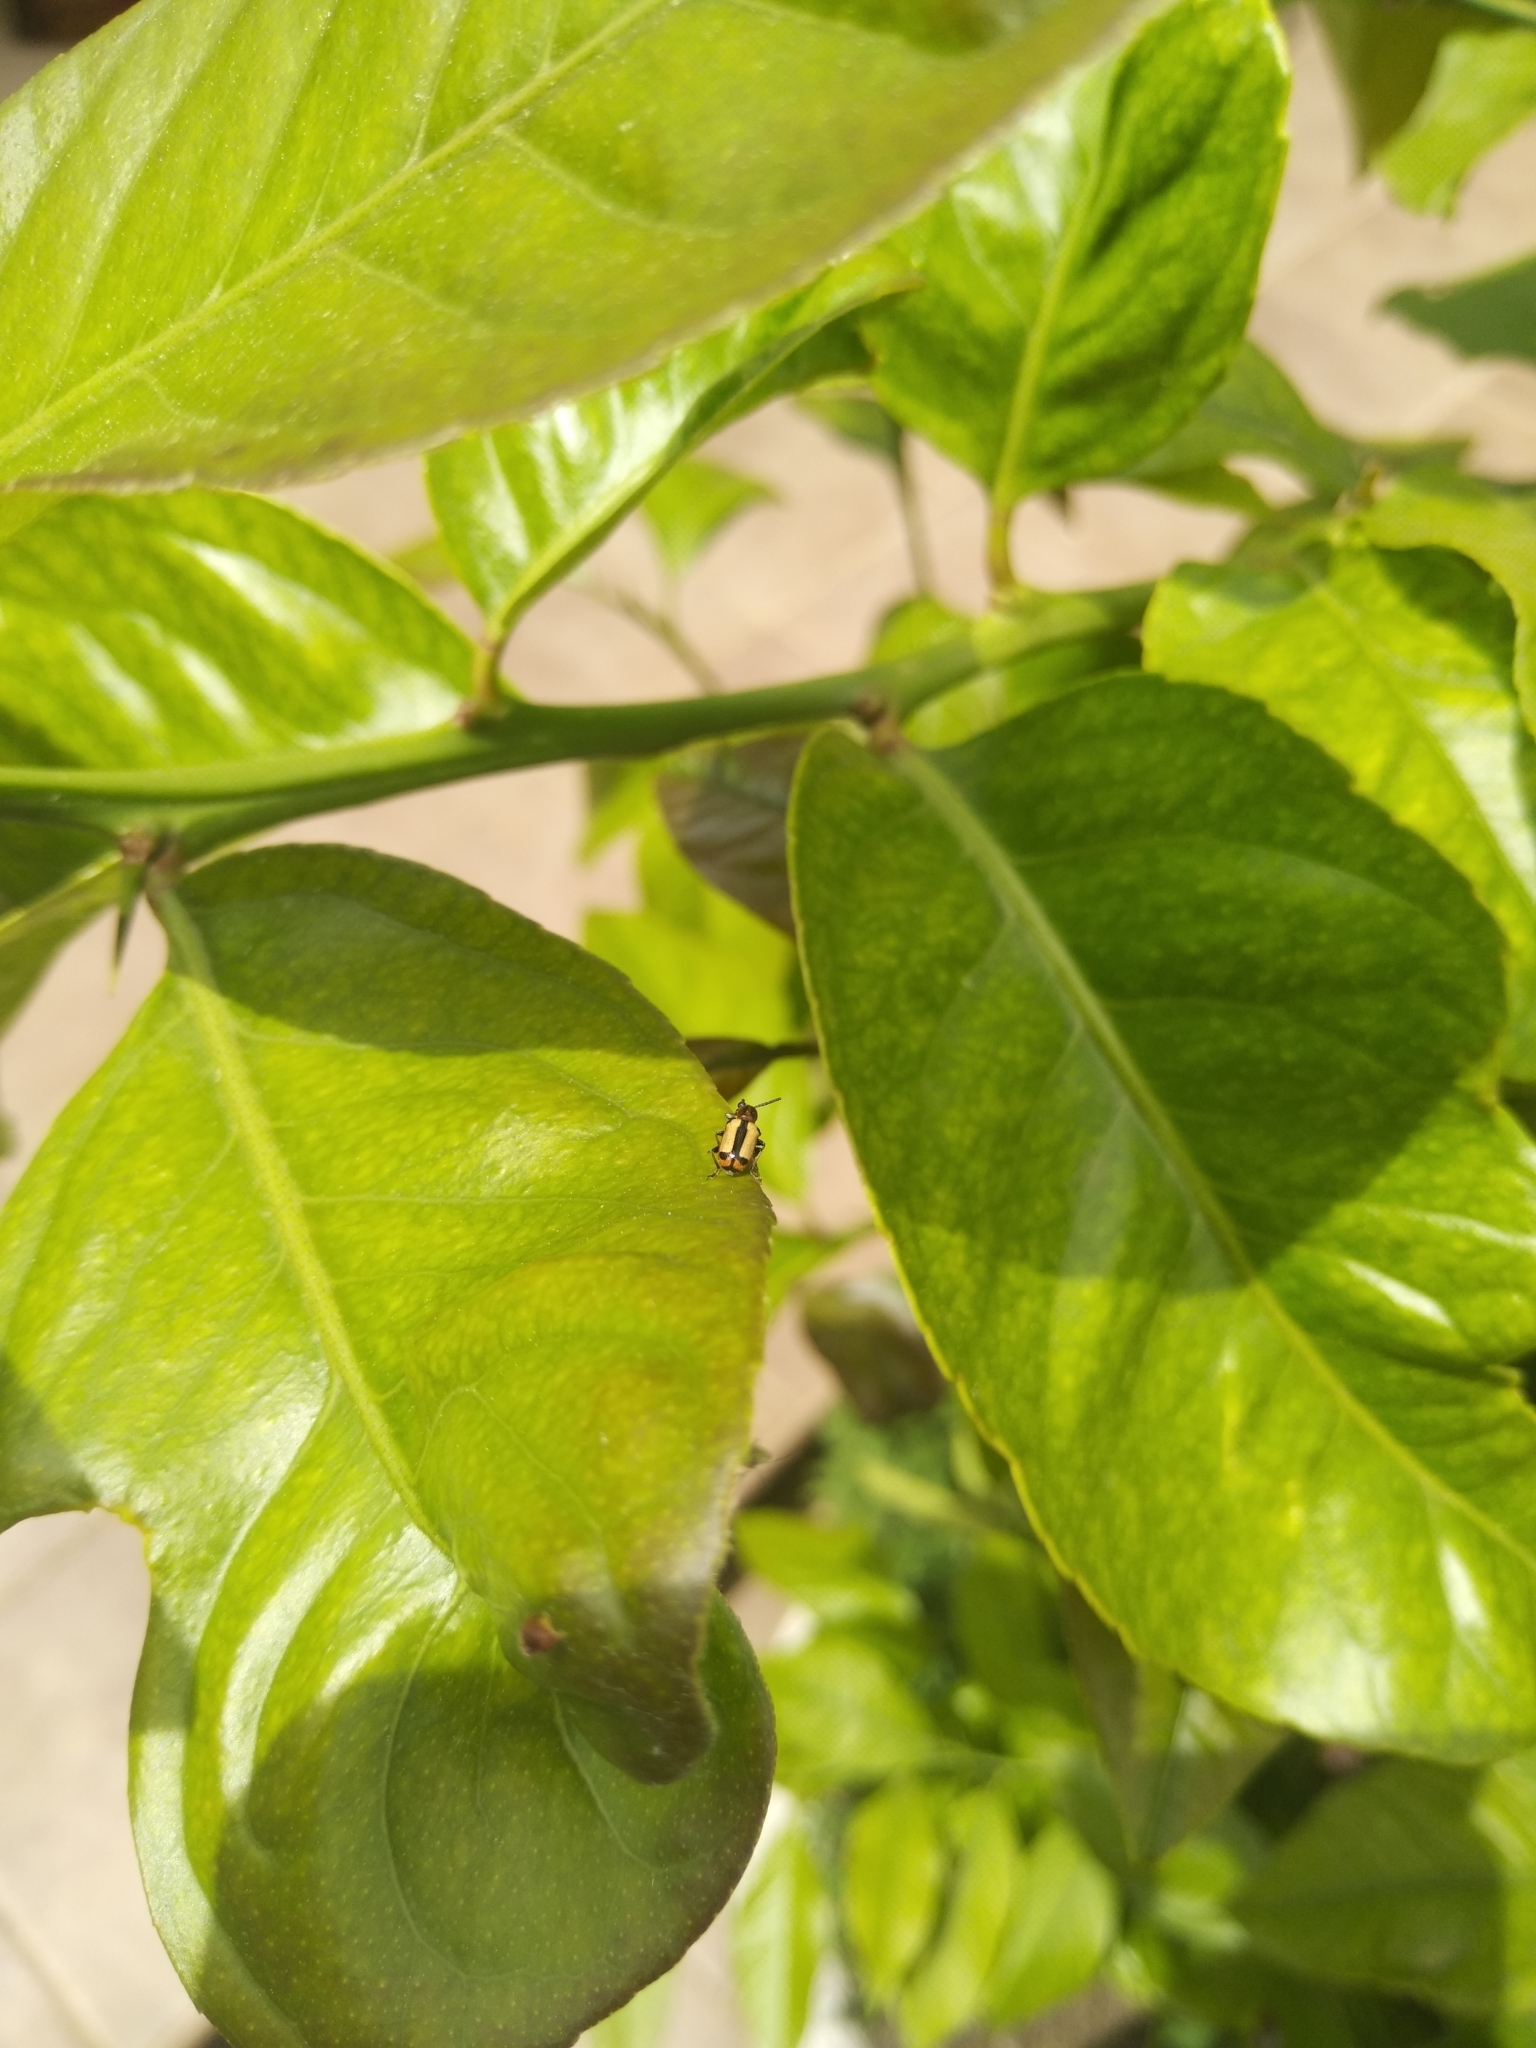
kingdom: Animalia
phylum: Arthropoda
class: Insecta
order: Coleoptera
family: Chrysomelidae
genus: Crioceris
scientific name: Crioceris paracenthesis
